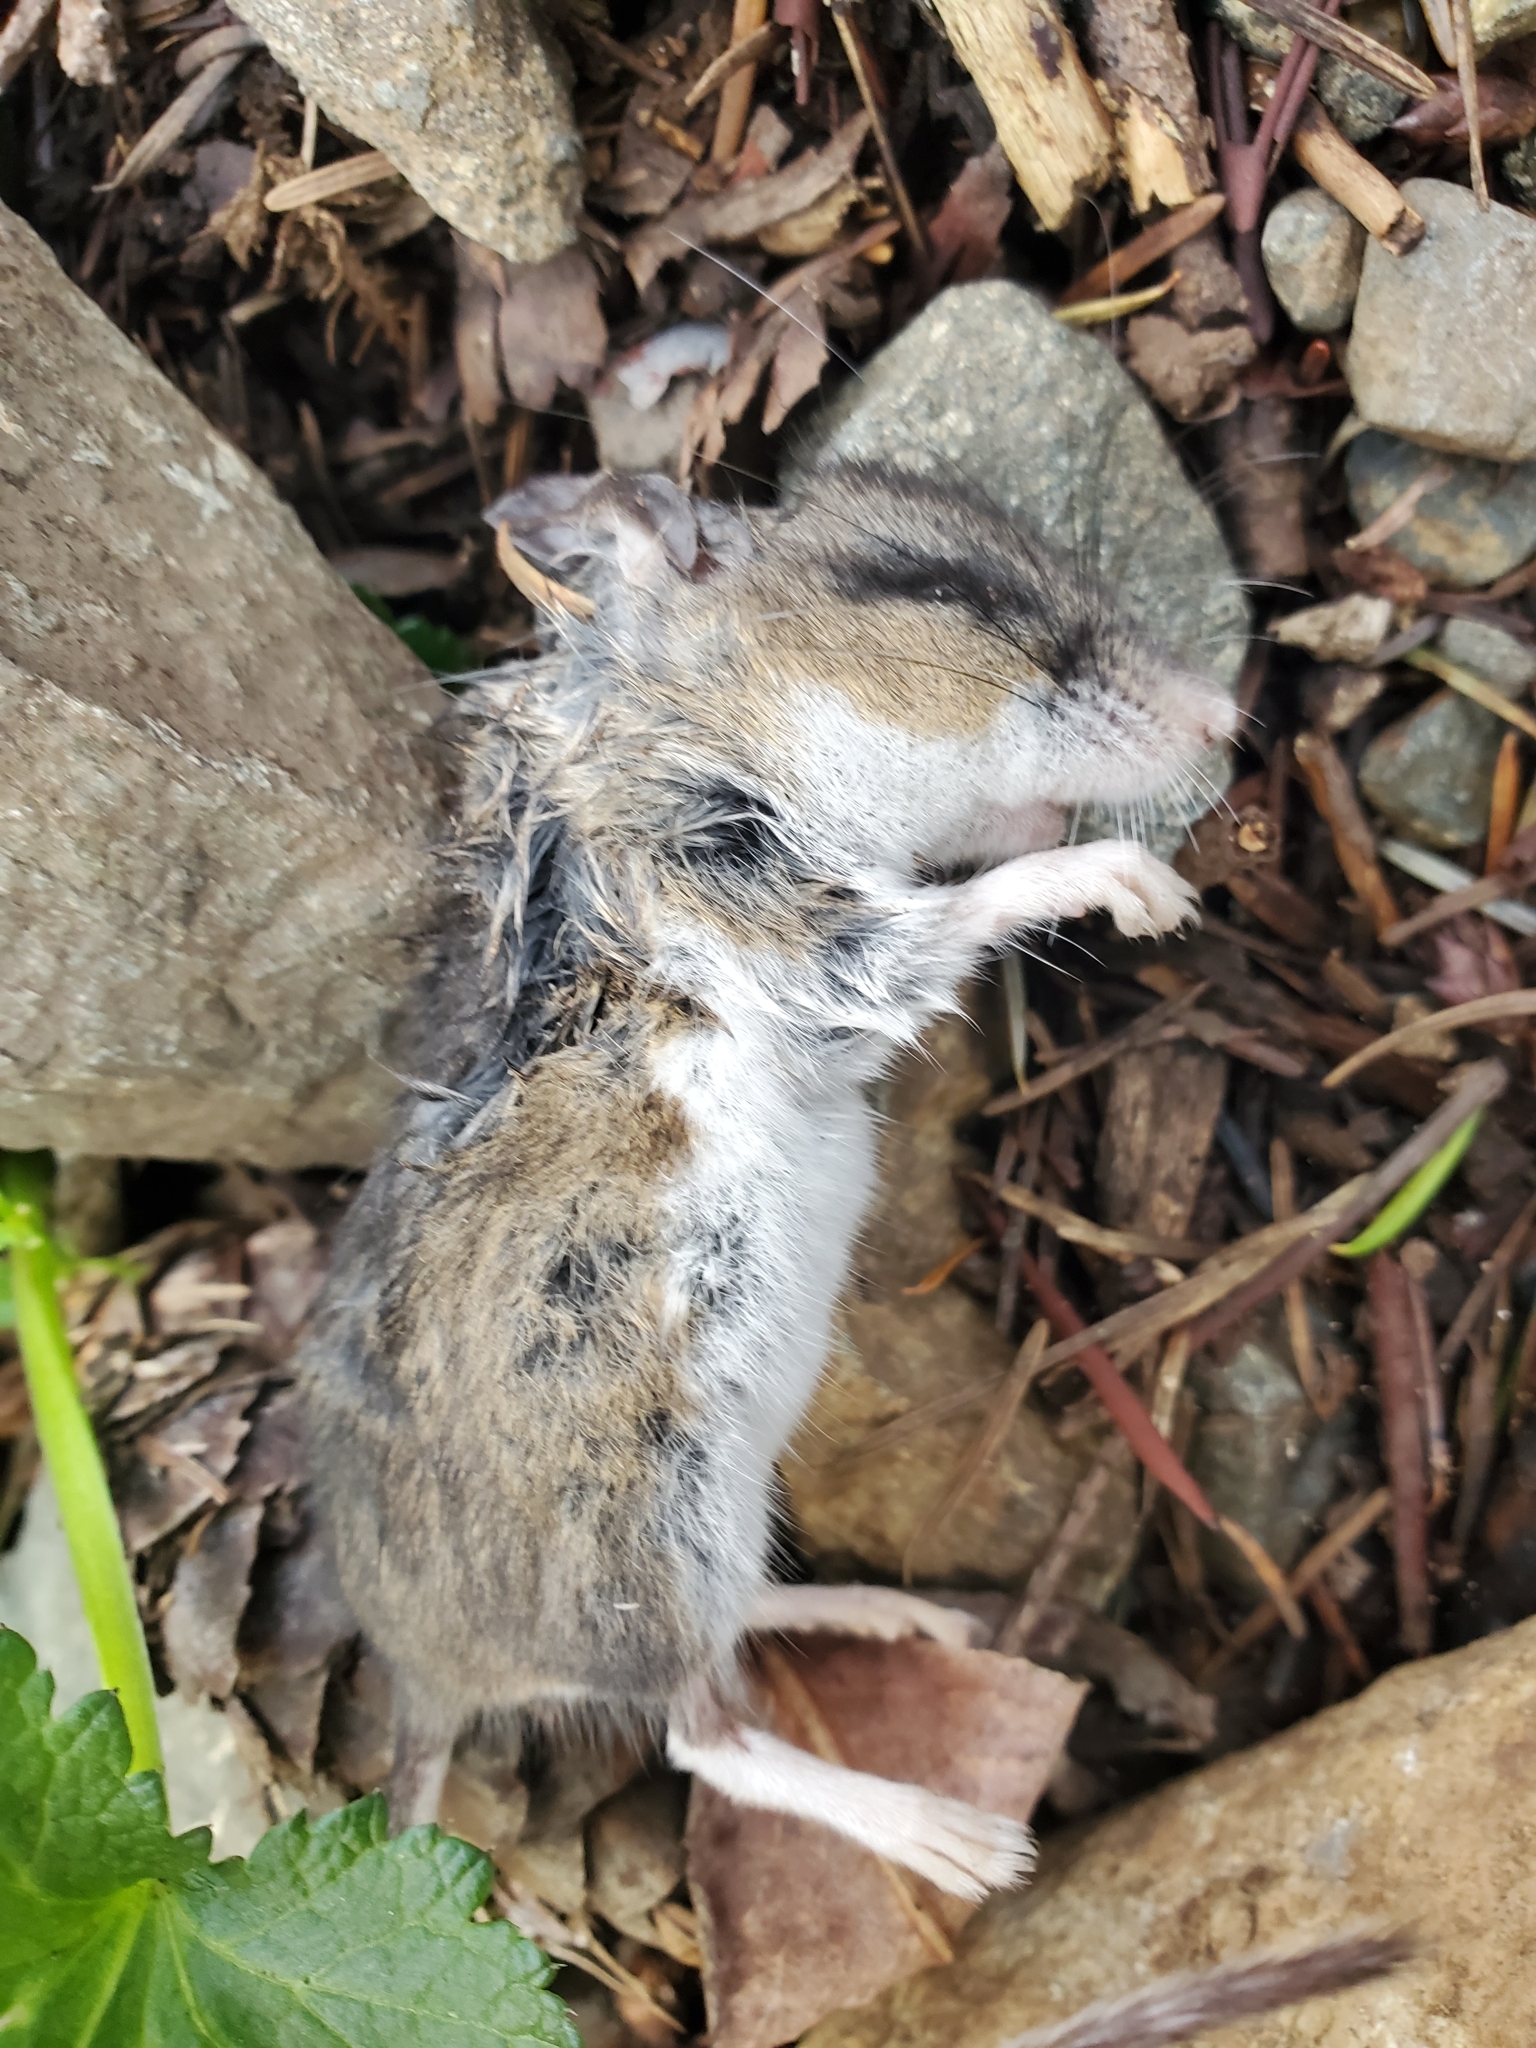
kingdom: Animalia
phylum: Chordata
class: Mammalia
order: Rodentia
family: Cricetidae
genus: Peromyscus
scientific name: Peromyscus maniculatus
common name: Deer mouse
